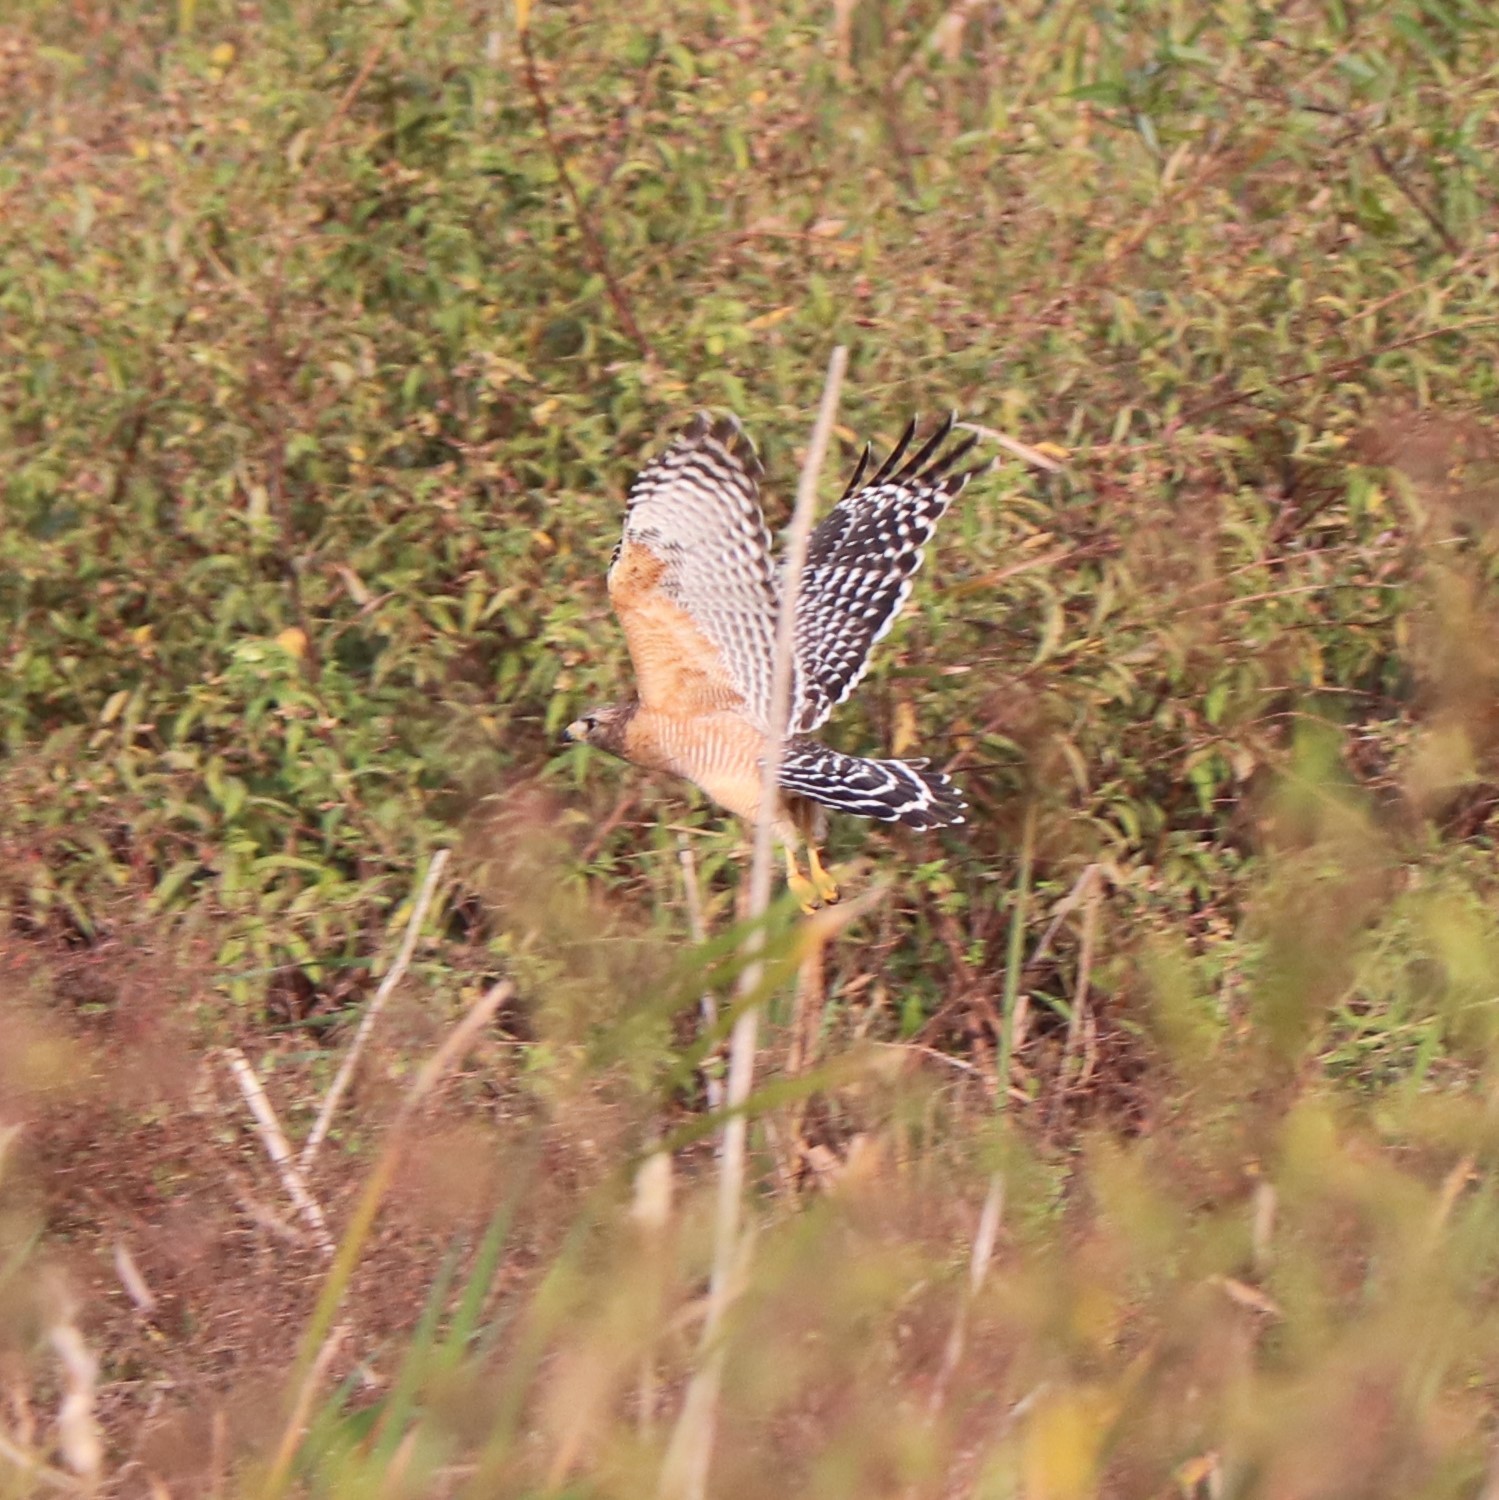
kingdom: Animalia
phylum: Chordata
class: Aves
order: Accipitriformes
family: Accipitridae
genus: Buteo
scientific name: Buteo lineatus
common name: Red-shouldered hawk
